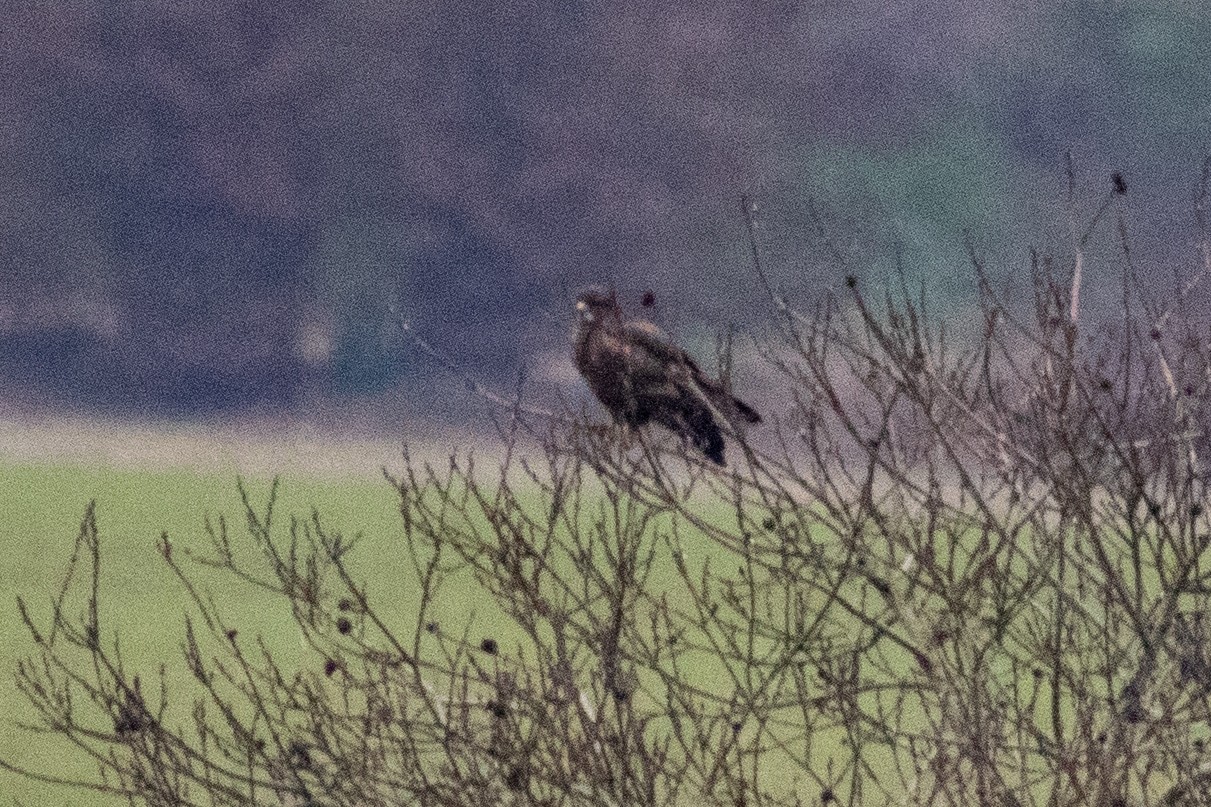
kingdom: Animalia
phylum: Chordata
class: Aves
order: Accipitriformes
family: Accipitridae
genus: Buteo
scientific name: Buteo buteo
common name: Common buzzard
